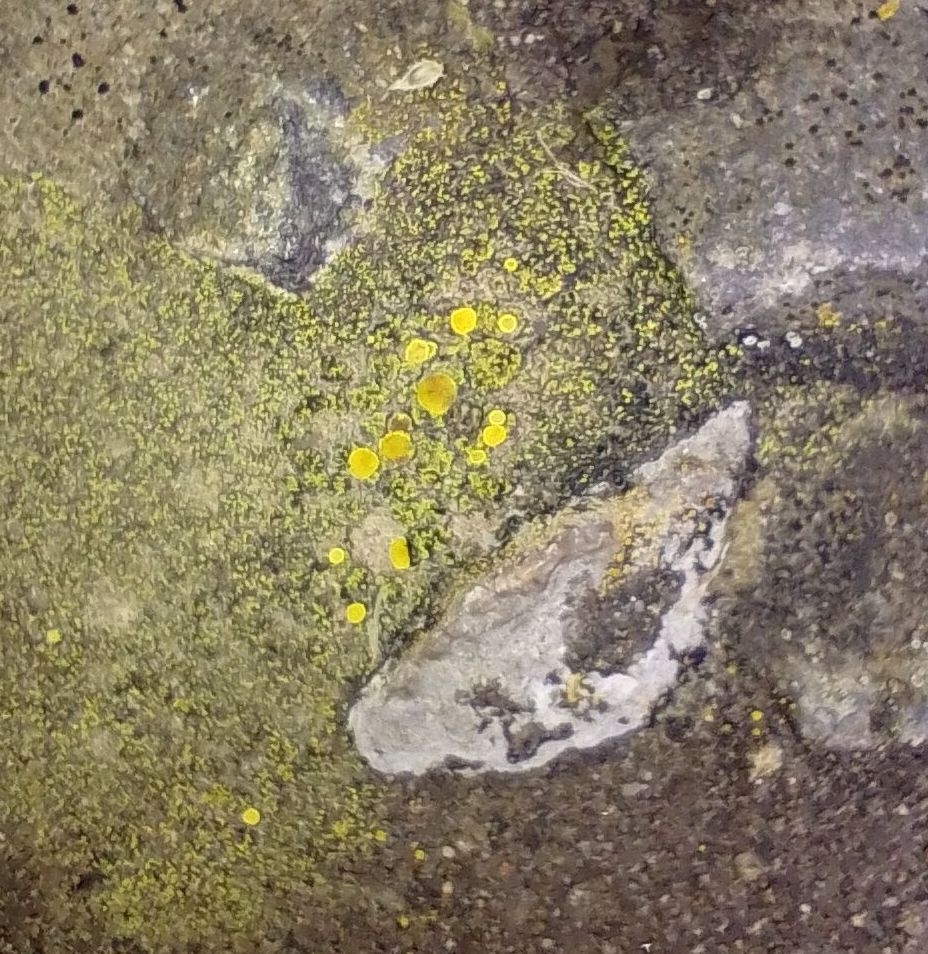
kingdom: Fungi
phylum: Ascomycota
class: Candelariomycetes
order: Candelariales
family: Candelariaceae
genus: Candelariella
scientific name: Candelariella vitellina
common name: Common goldspeck
